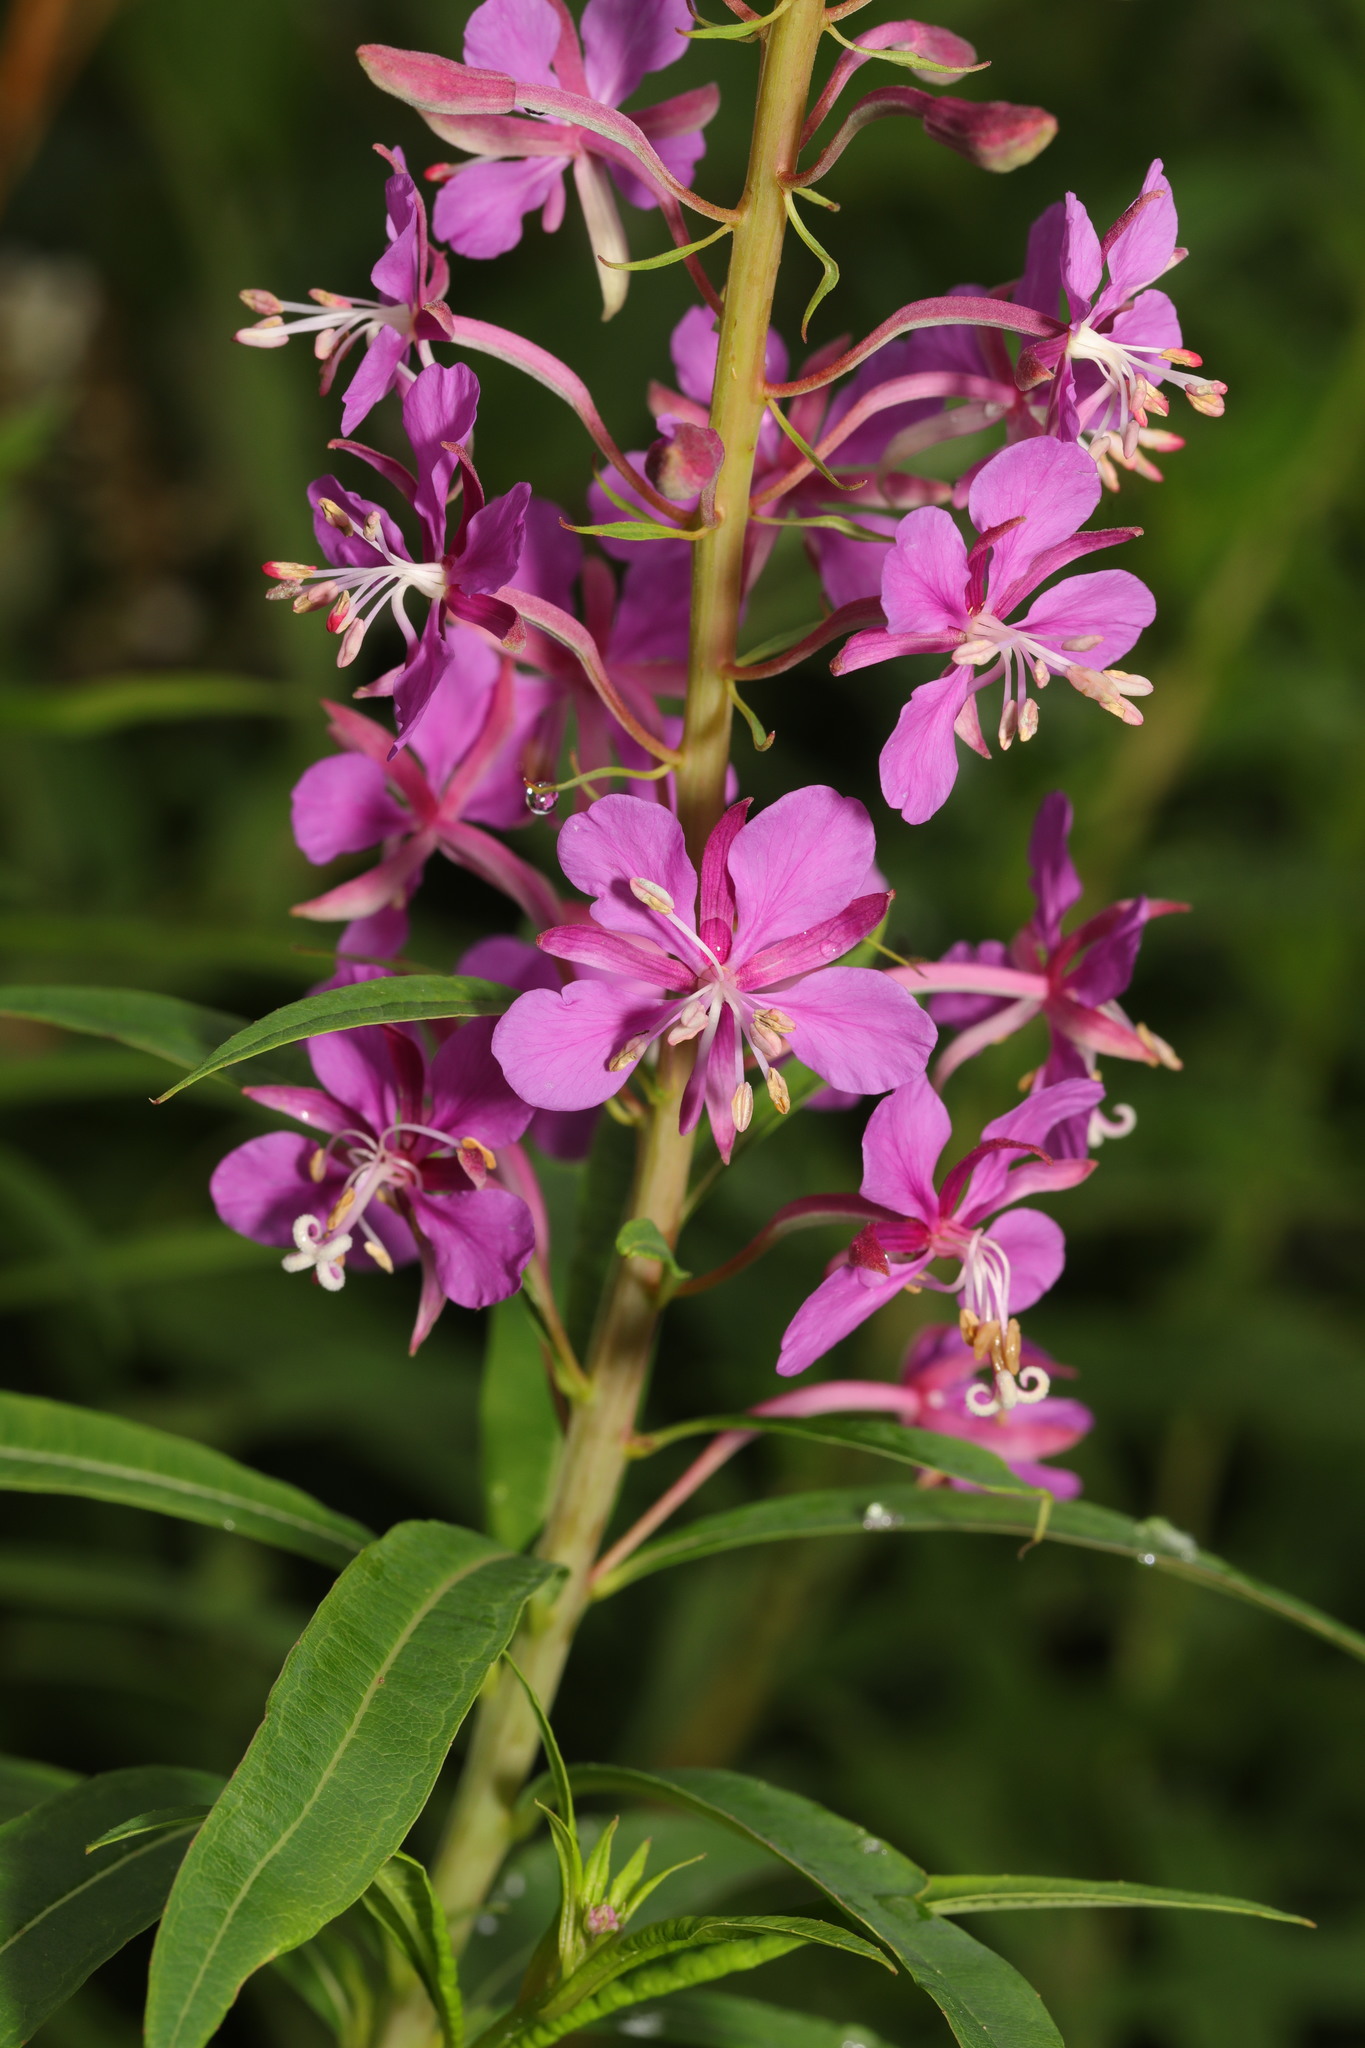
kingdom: Plantae
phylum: Tracheophyta
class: Magnoliopsida
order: Myrtales
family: Onagraceae
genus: Chamaenerion
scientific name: Chamaenerion angustifolium
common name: Fireweed
